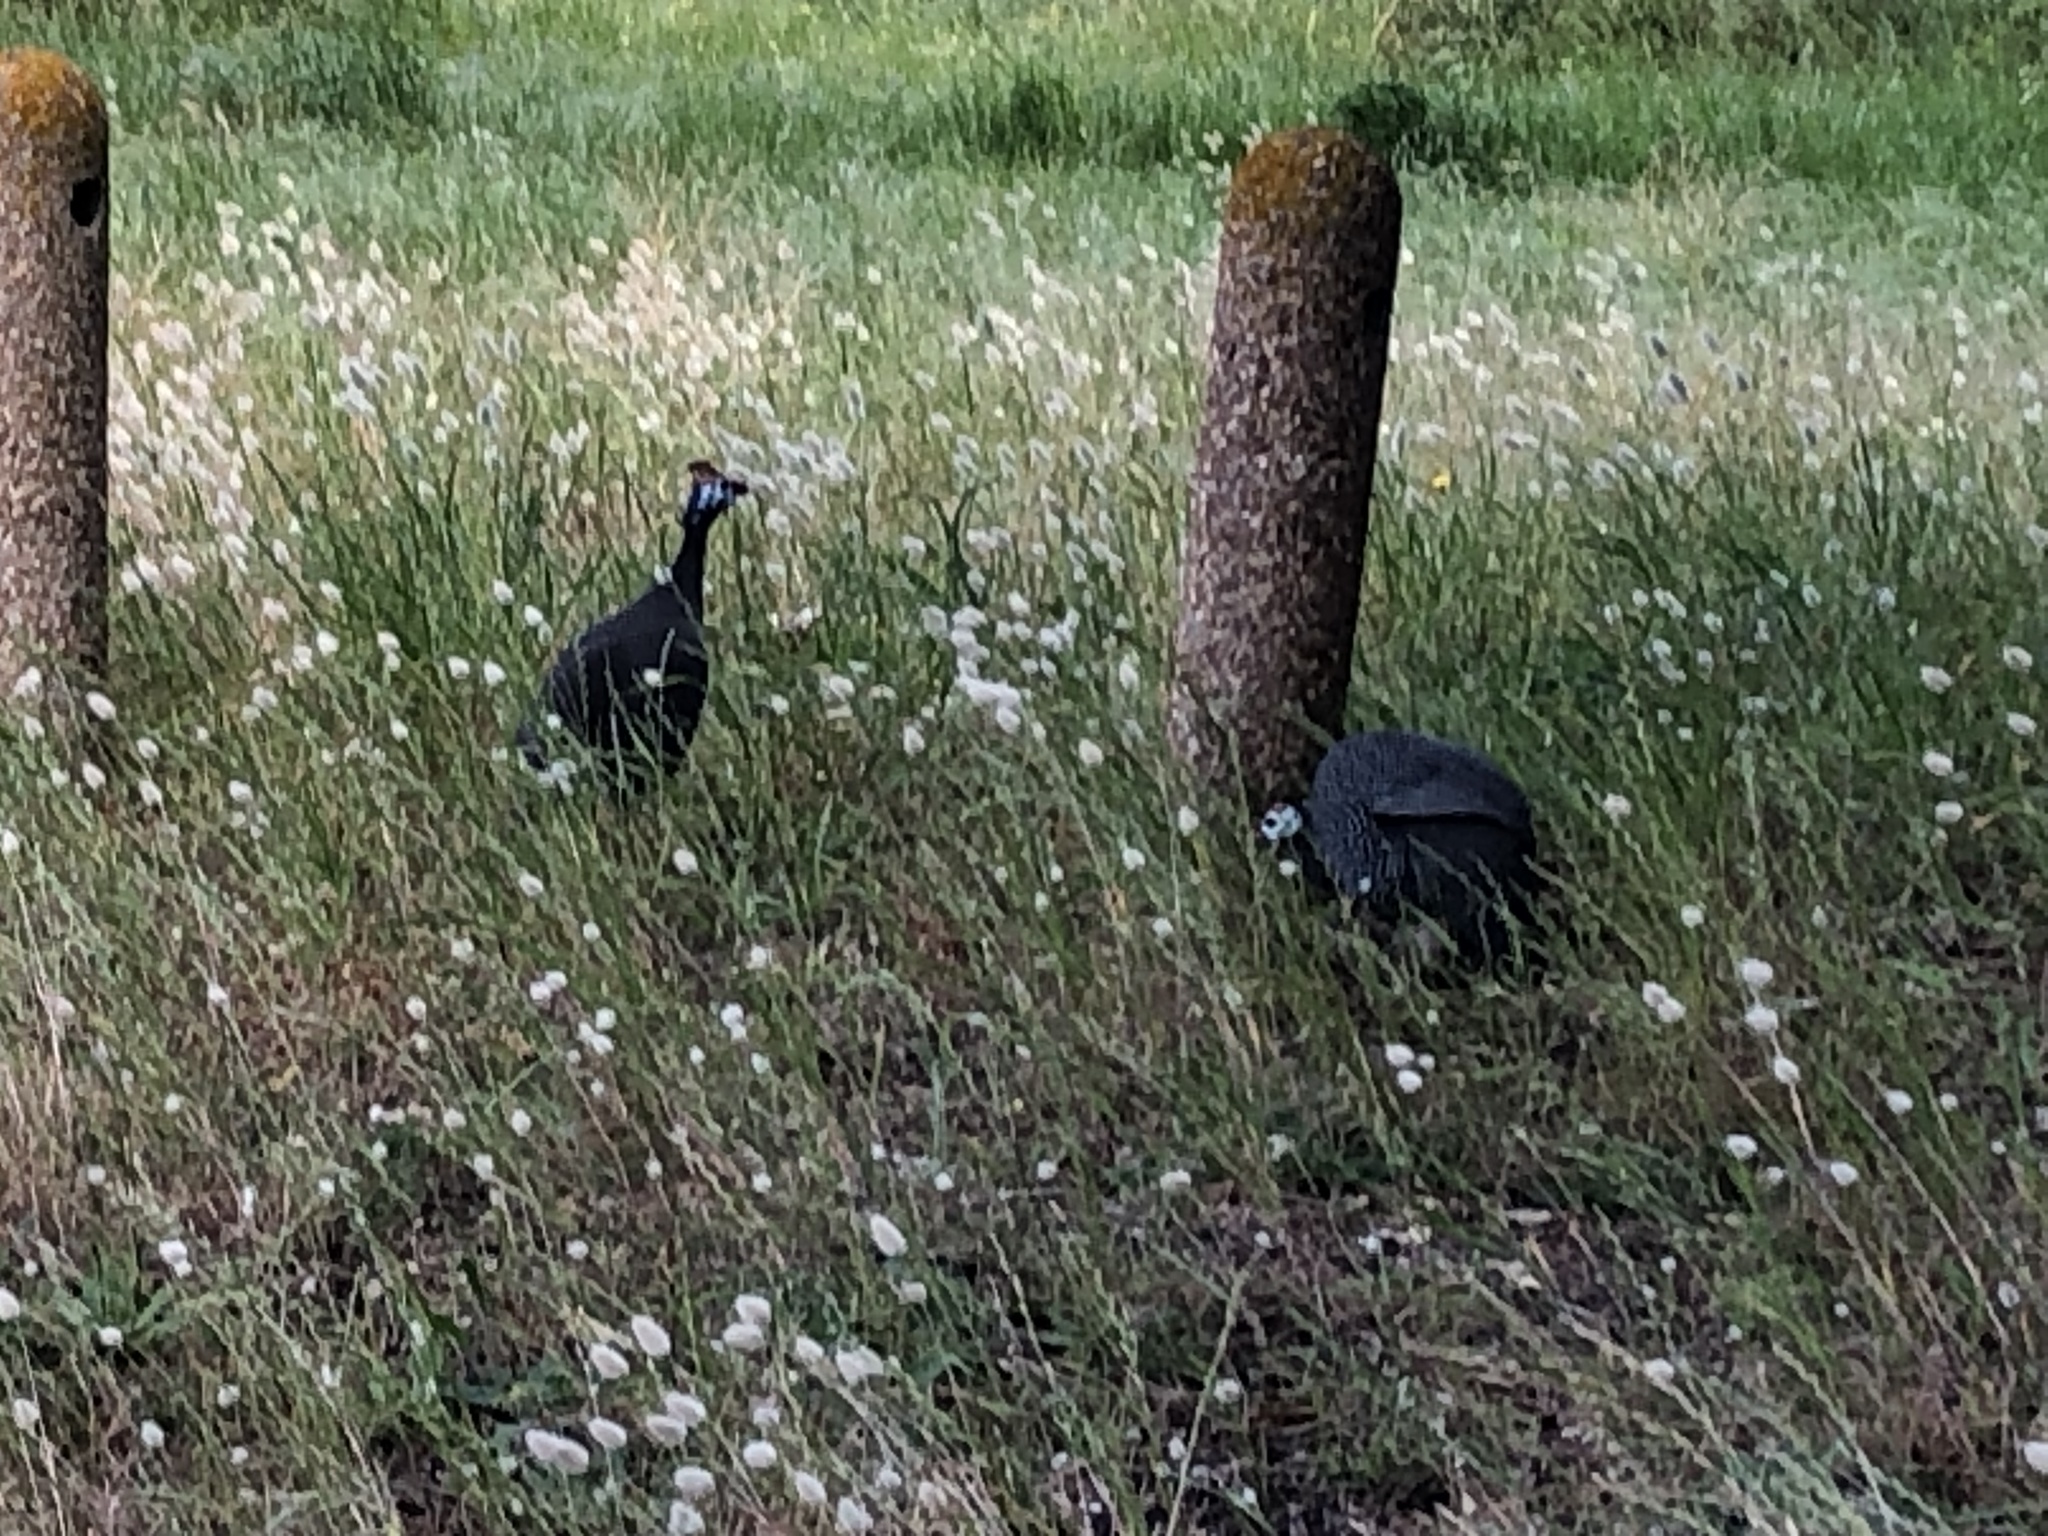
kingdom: Animalia
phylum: Chordata
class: Aves
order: Galliformes
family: Numididae
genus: Numida
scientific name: Numida meleagris
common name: Helmeted guineafowl
